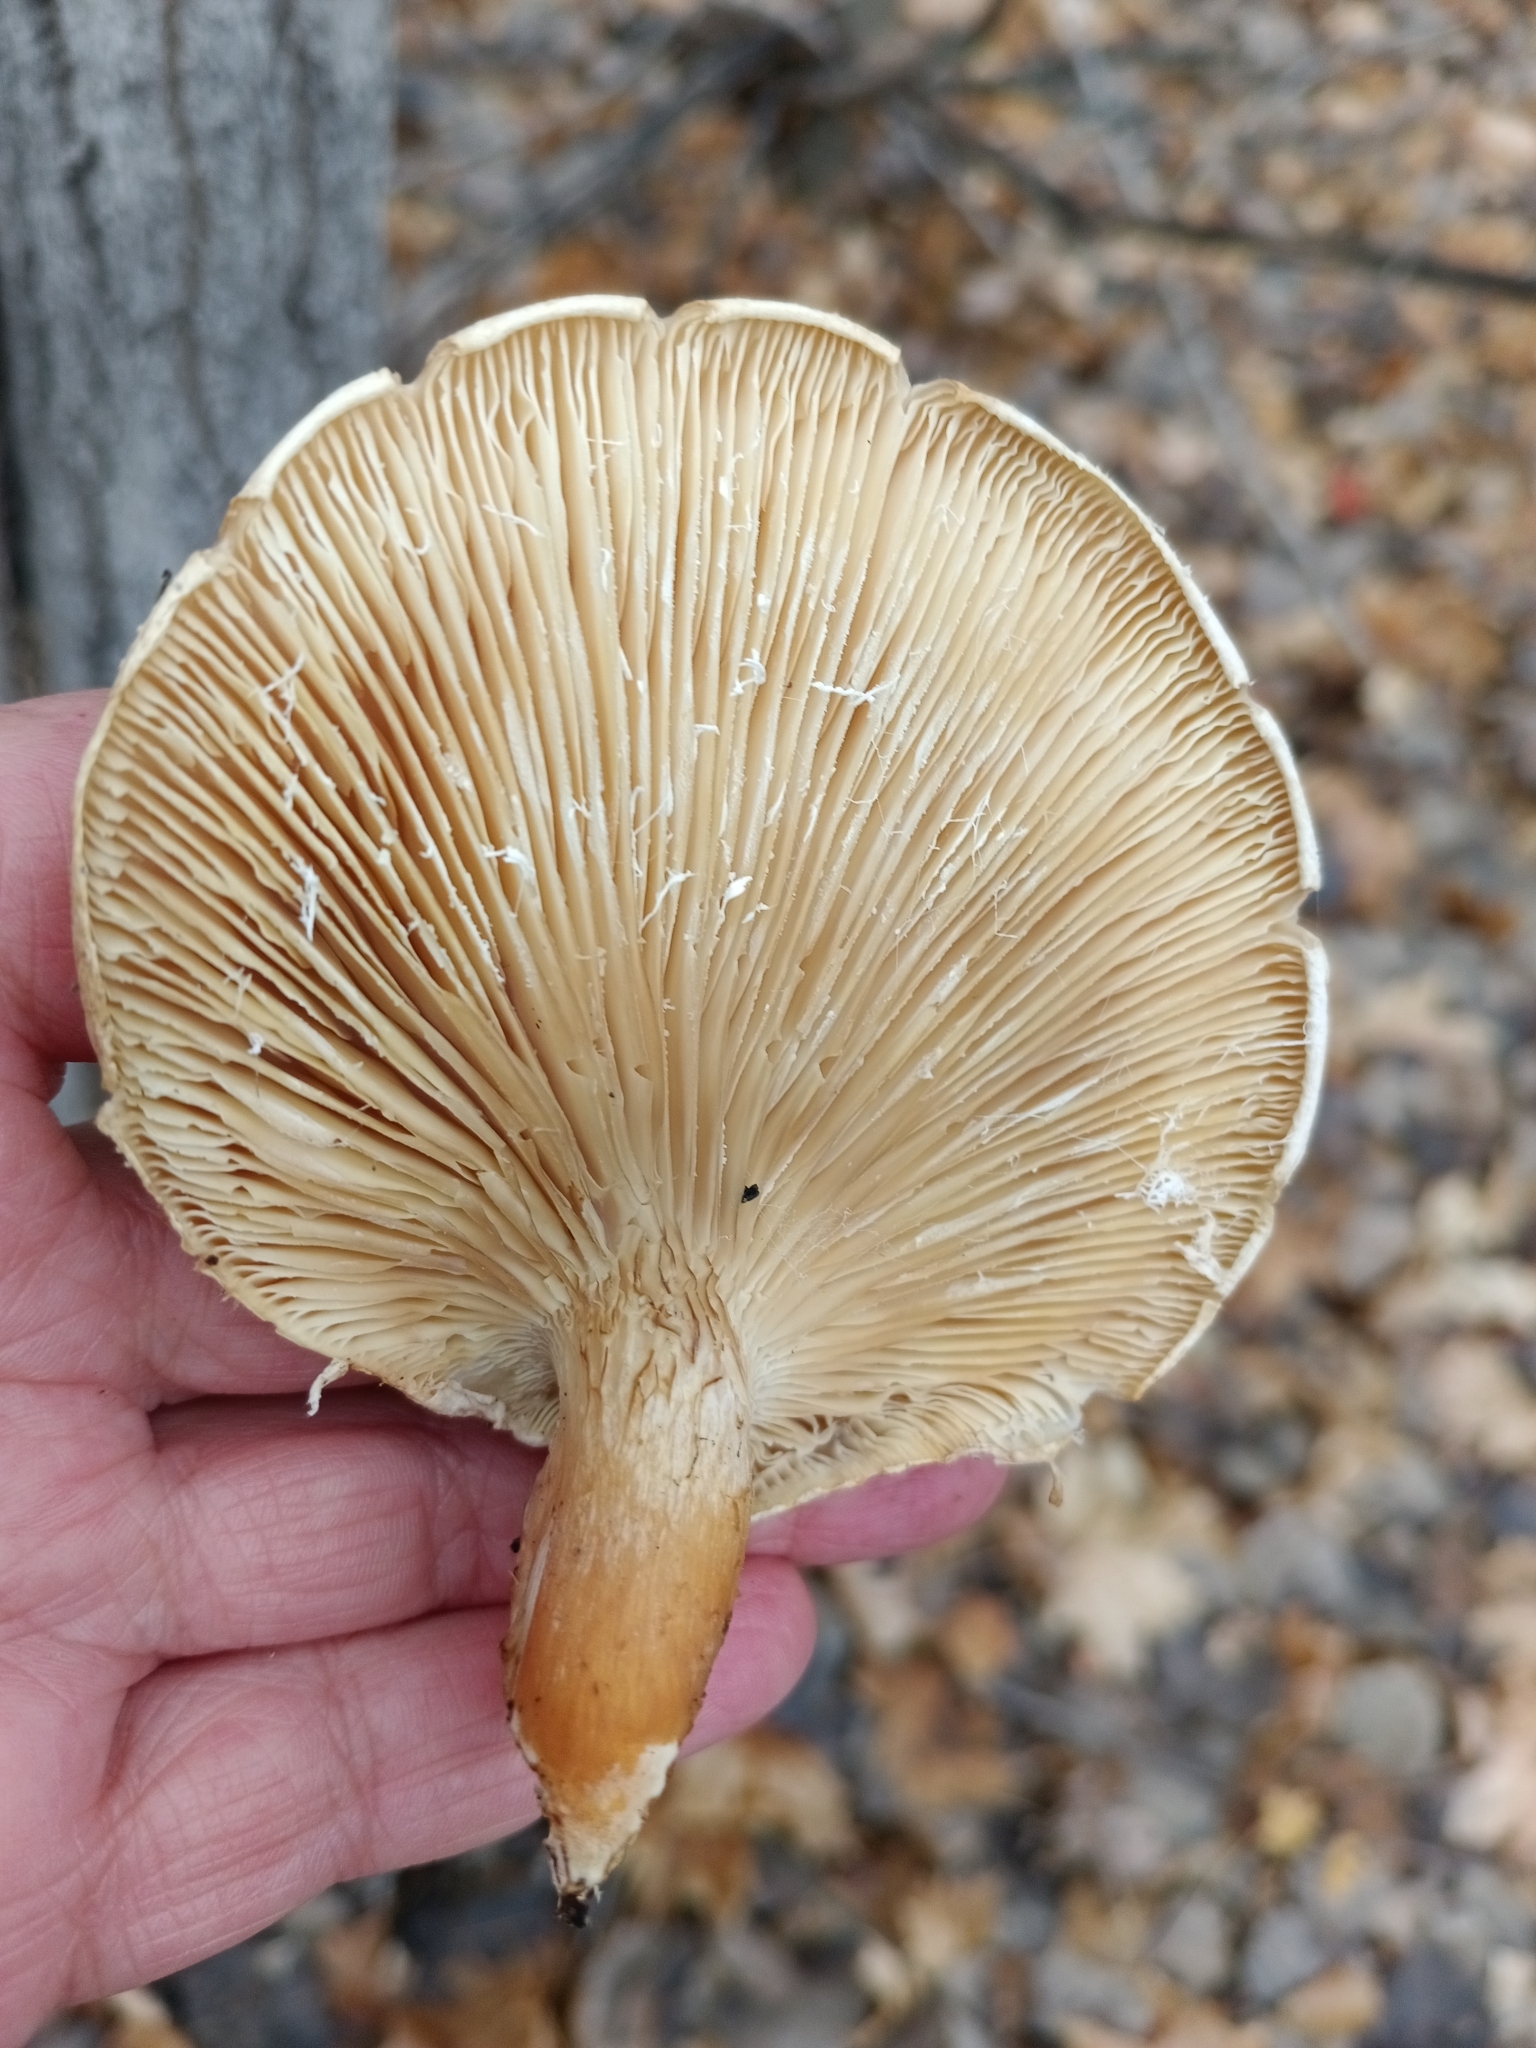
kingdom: Fungi
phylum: Basidiomycota
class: Agaricomycetes
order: Agaricales
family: Pleurotaceae
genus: Pleurotus
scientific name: Pleurotus dryinus
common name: Veiled oyster
